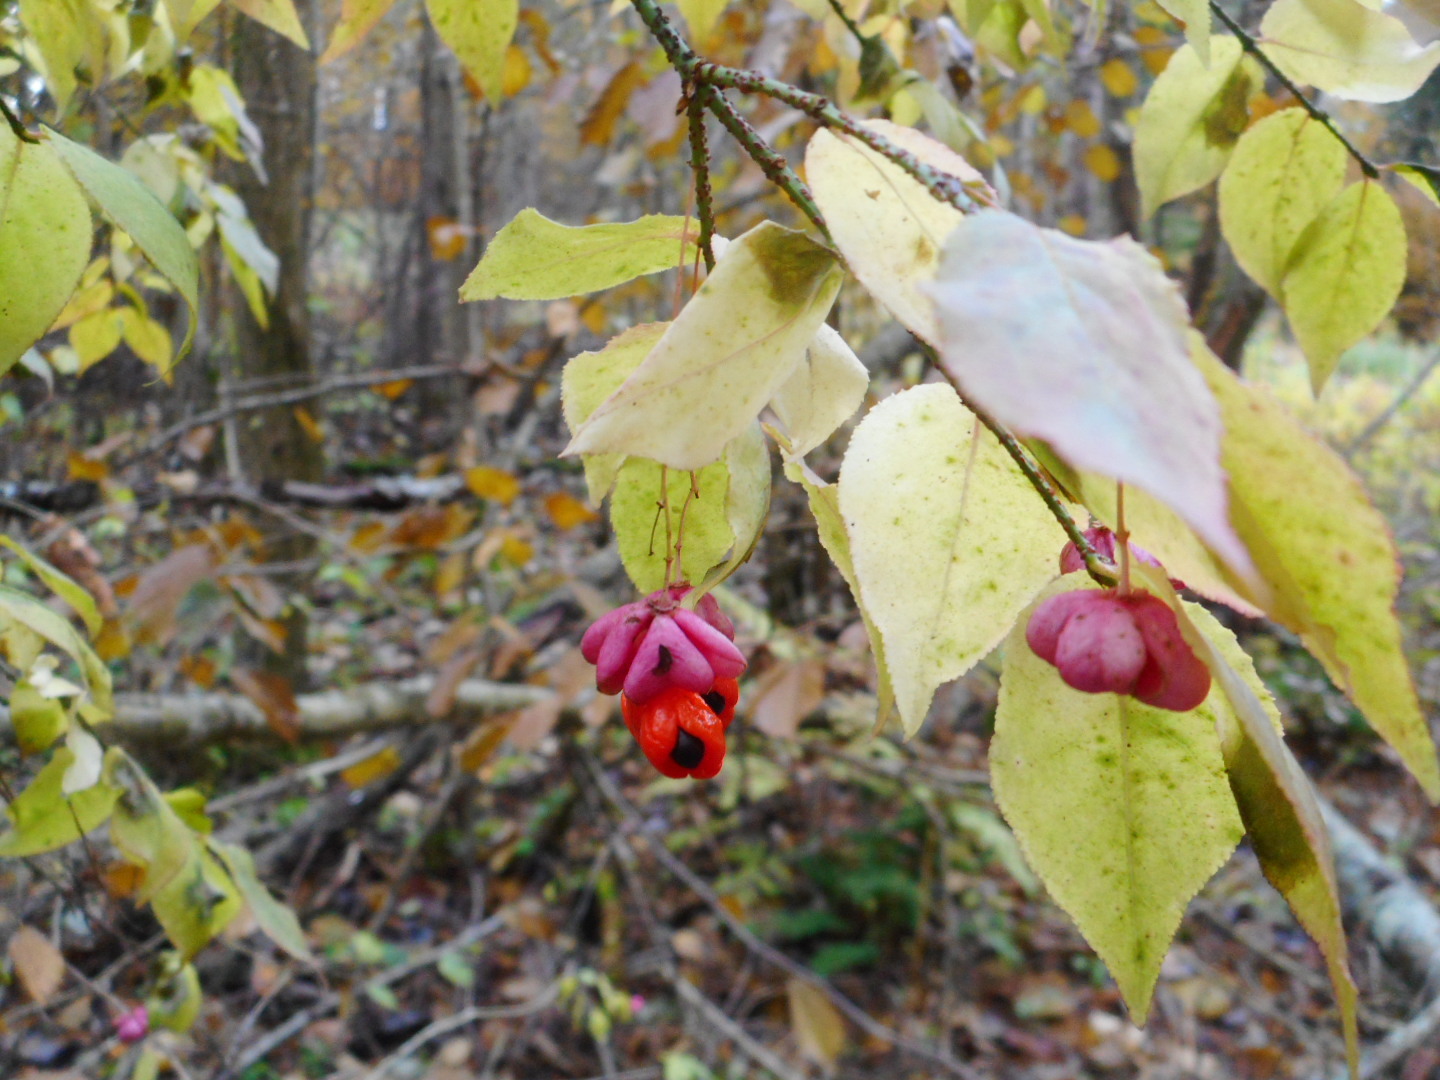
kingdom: Plantae
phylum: Tracheophyta
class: Magnoliopsida
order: Celastrales
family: Celastraceae
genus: Euonymus
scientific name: Euonymus verrucosus
